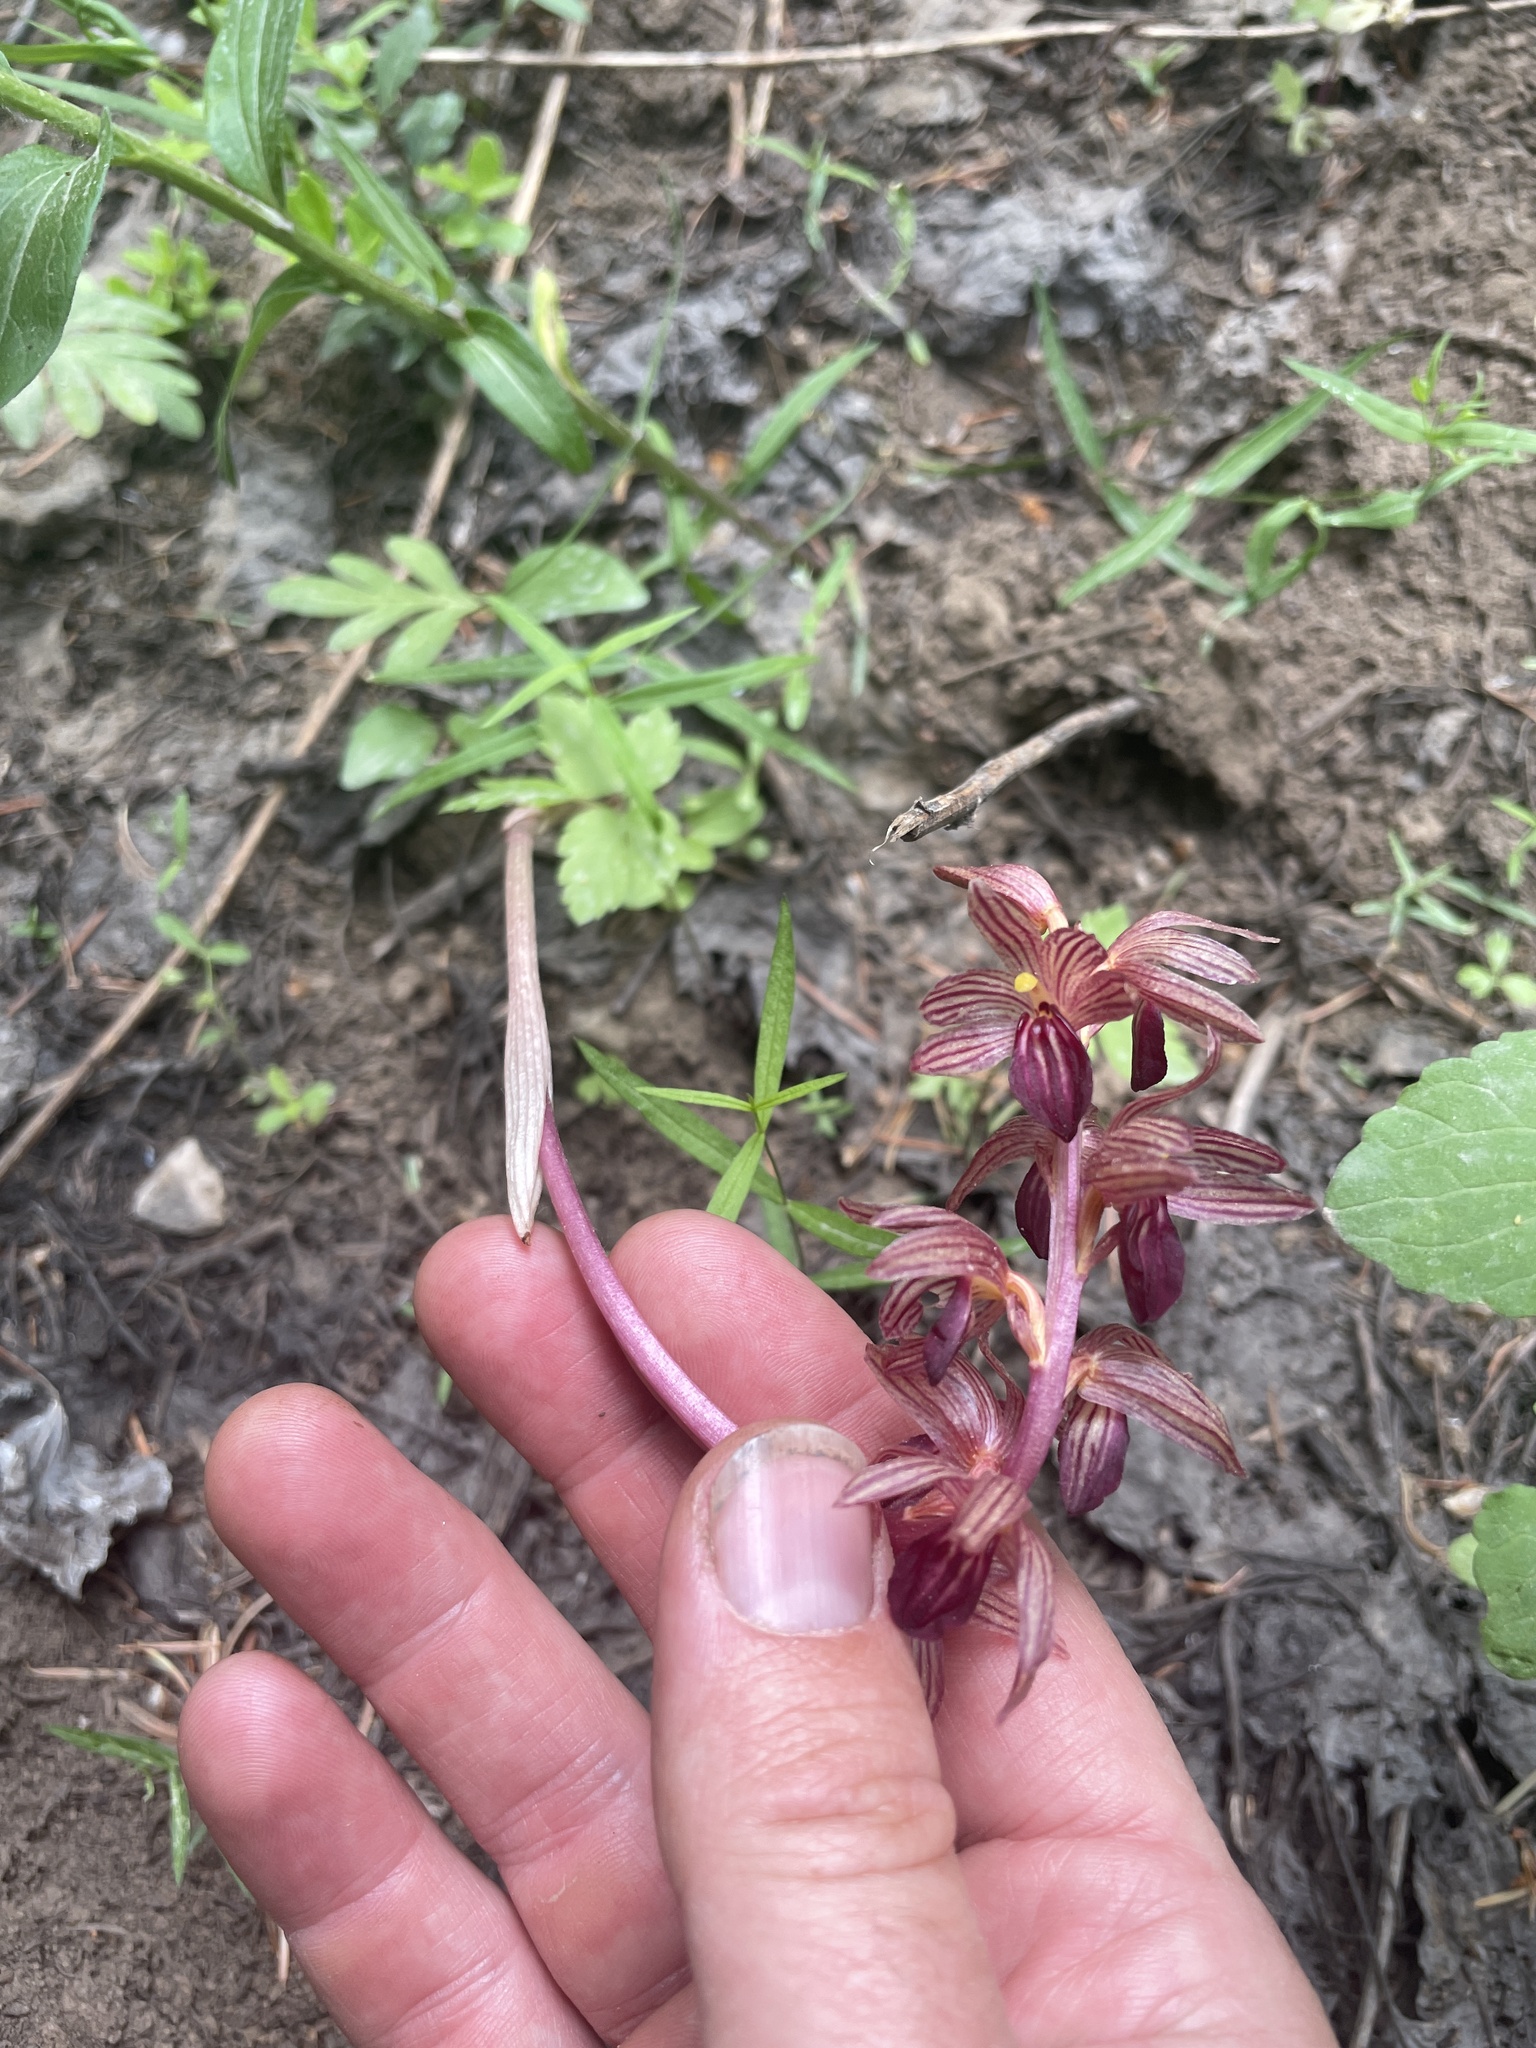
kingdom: Plantae
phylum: Tracheophyta
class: Liliopsida
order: Asparagales
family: Orchidaceae
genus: Corallorhiza
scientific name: Corallorhiza striata
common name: Hooded coralroot
